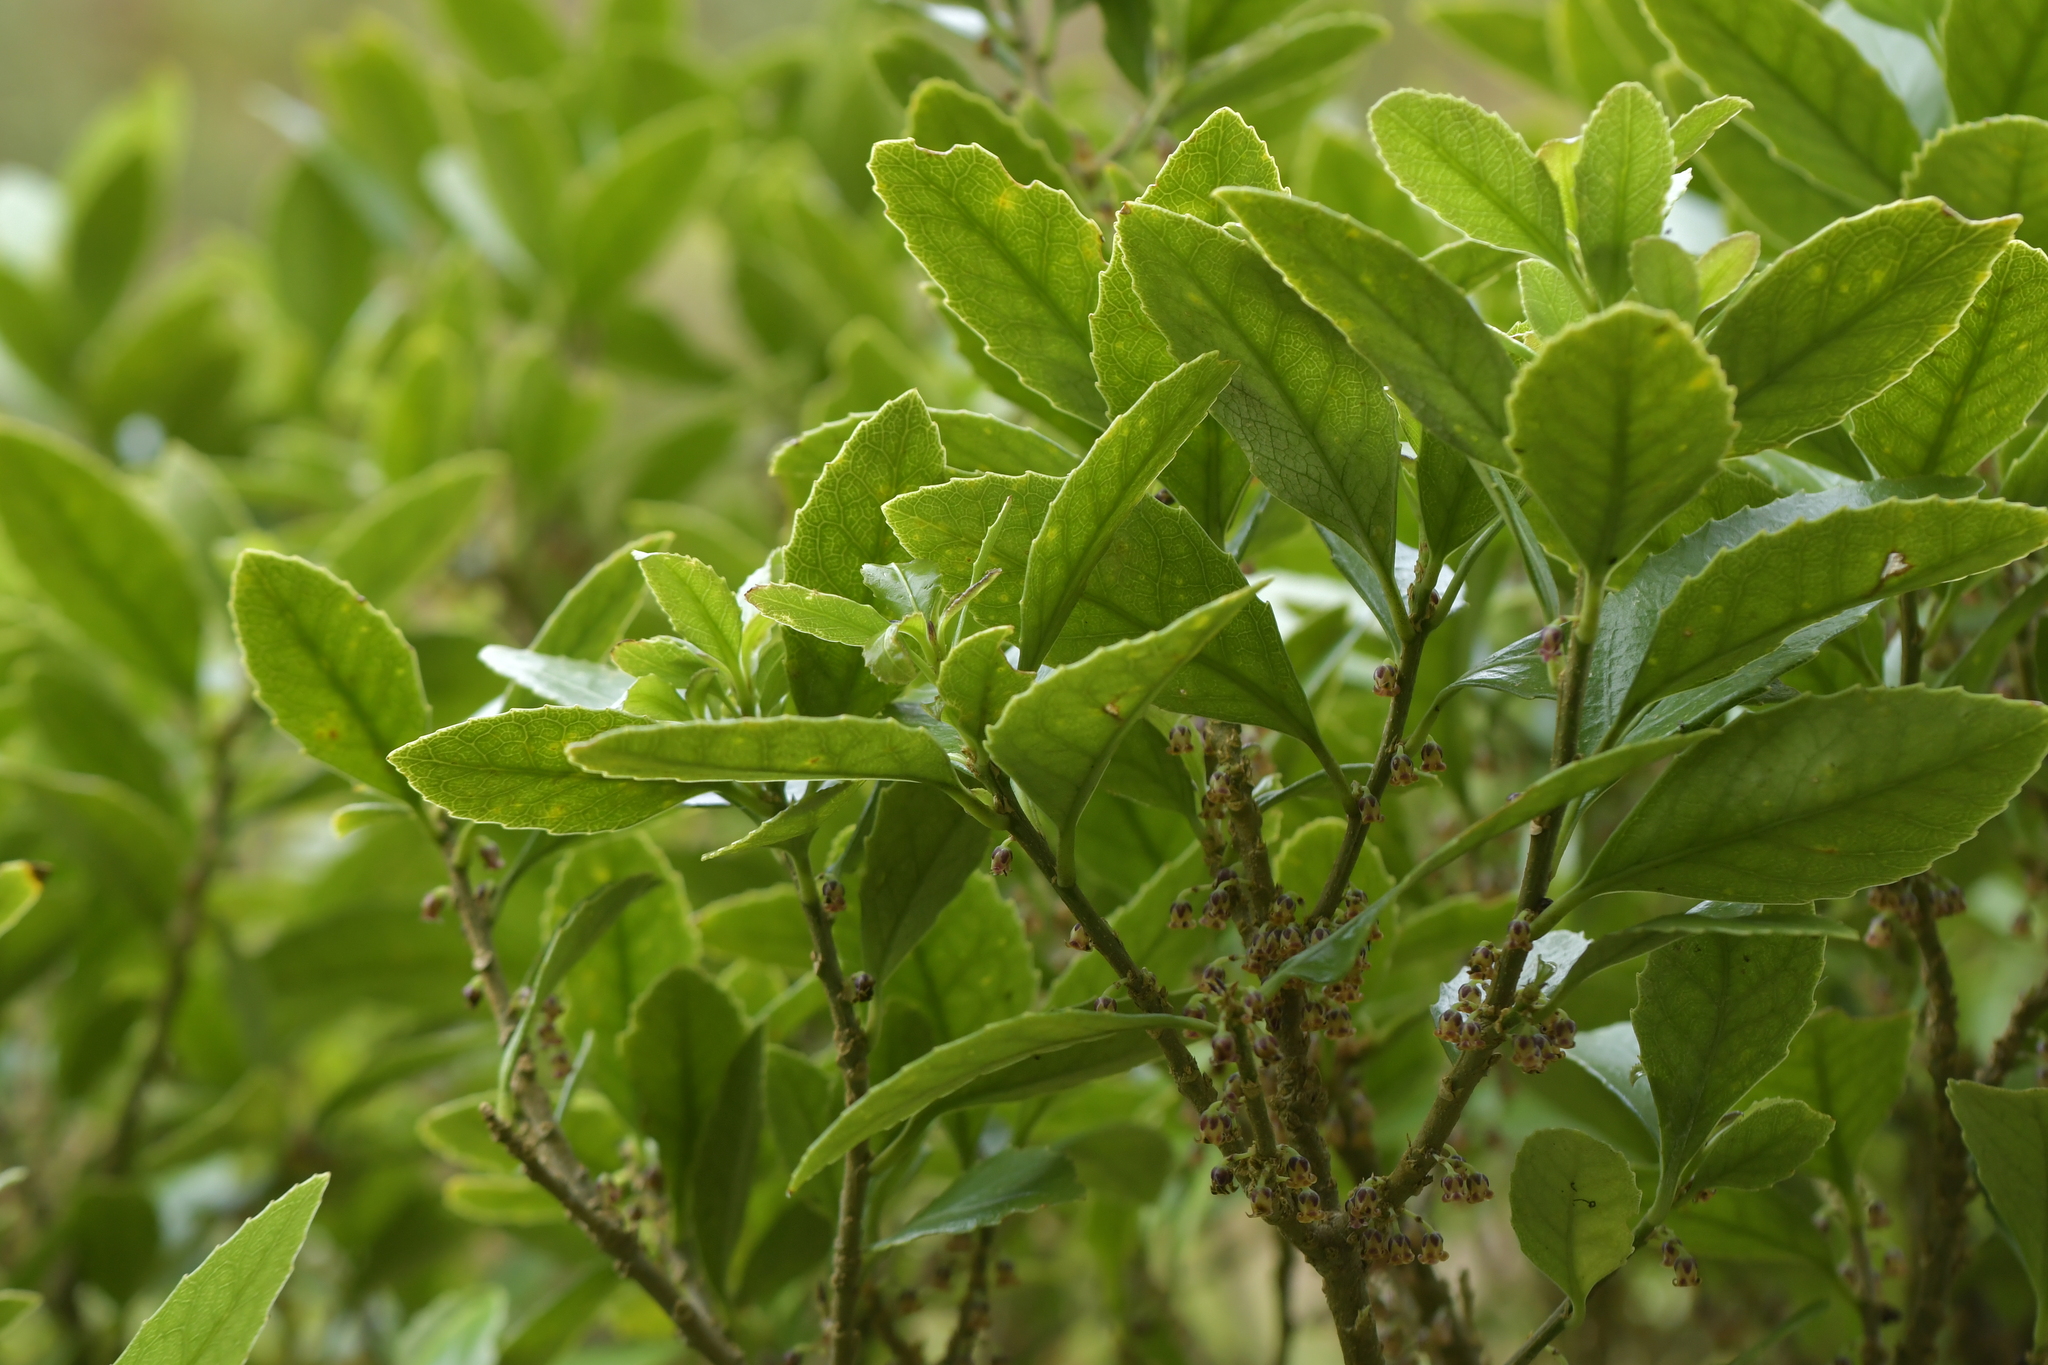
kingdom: Plantae
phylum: Tracheophyta
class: Magnoliopsida
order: Malpighiales
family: Violaceae
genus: Melicytus
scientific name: Melicytus chathamicus
